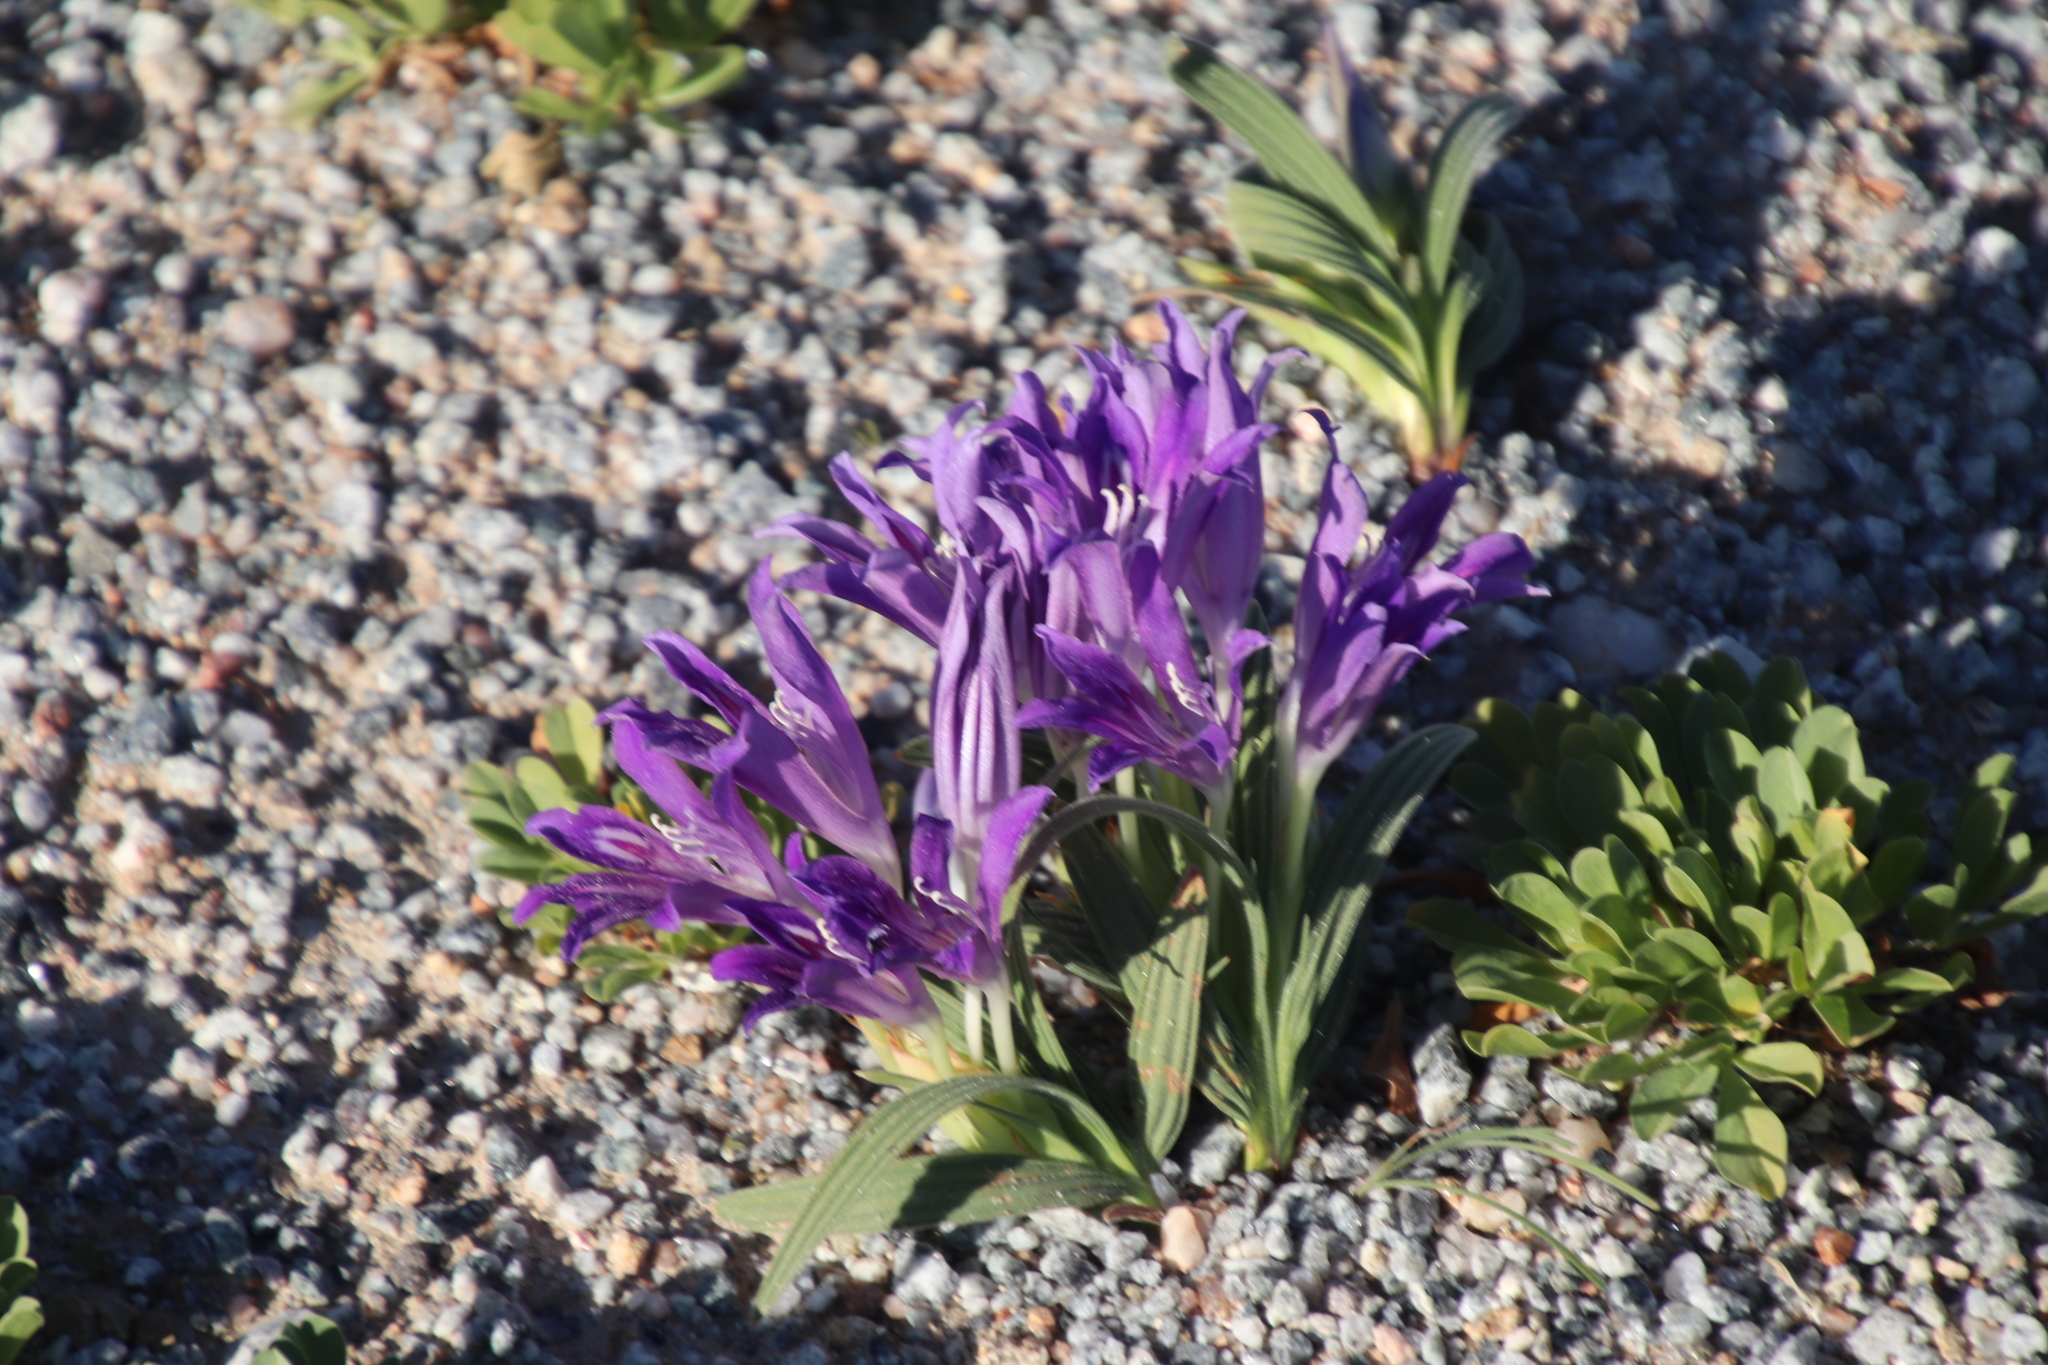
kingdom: Plantae
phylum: Tracheophyta
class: Liliopsida
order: Asparagales
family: Iridaceae
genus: Babiana
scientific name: Babiana curviscapa
